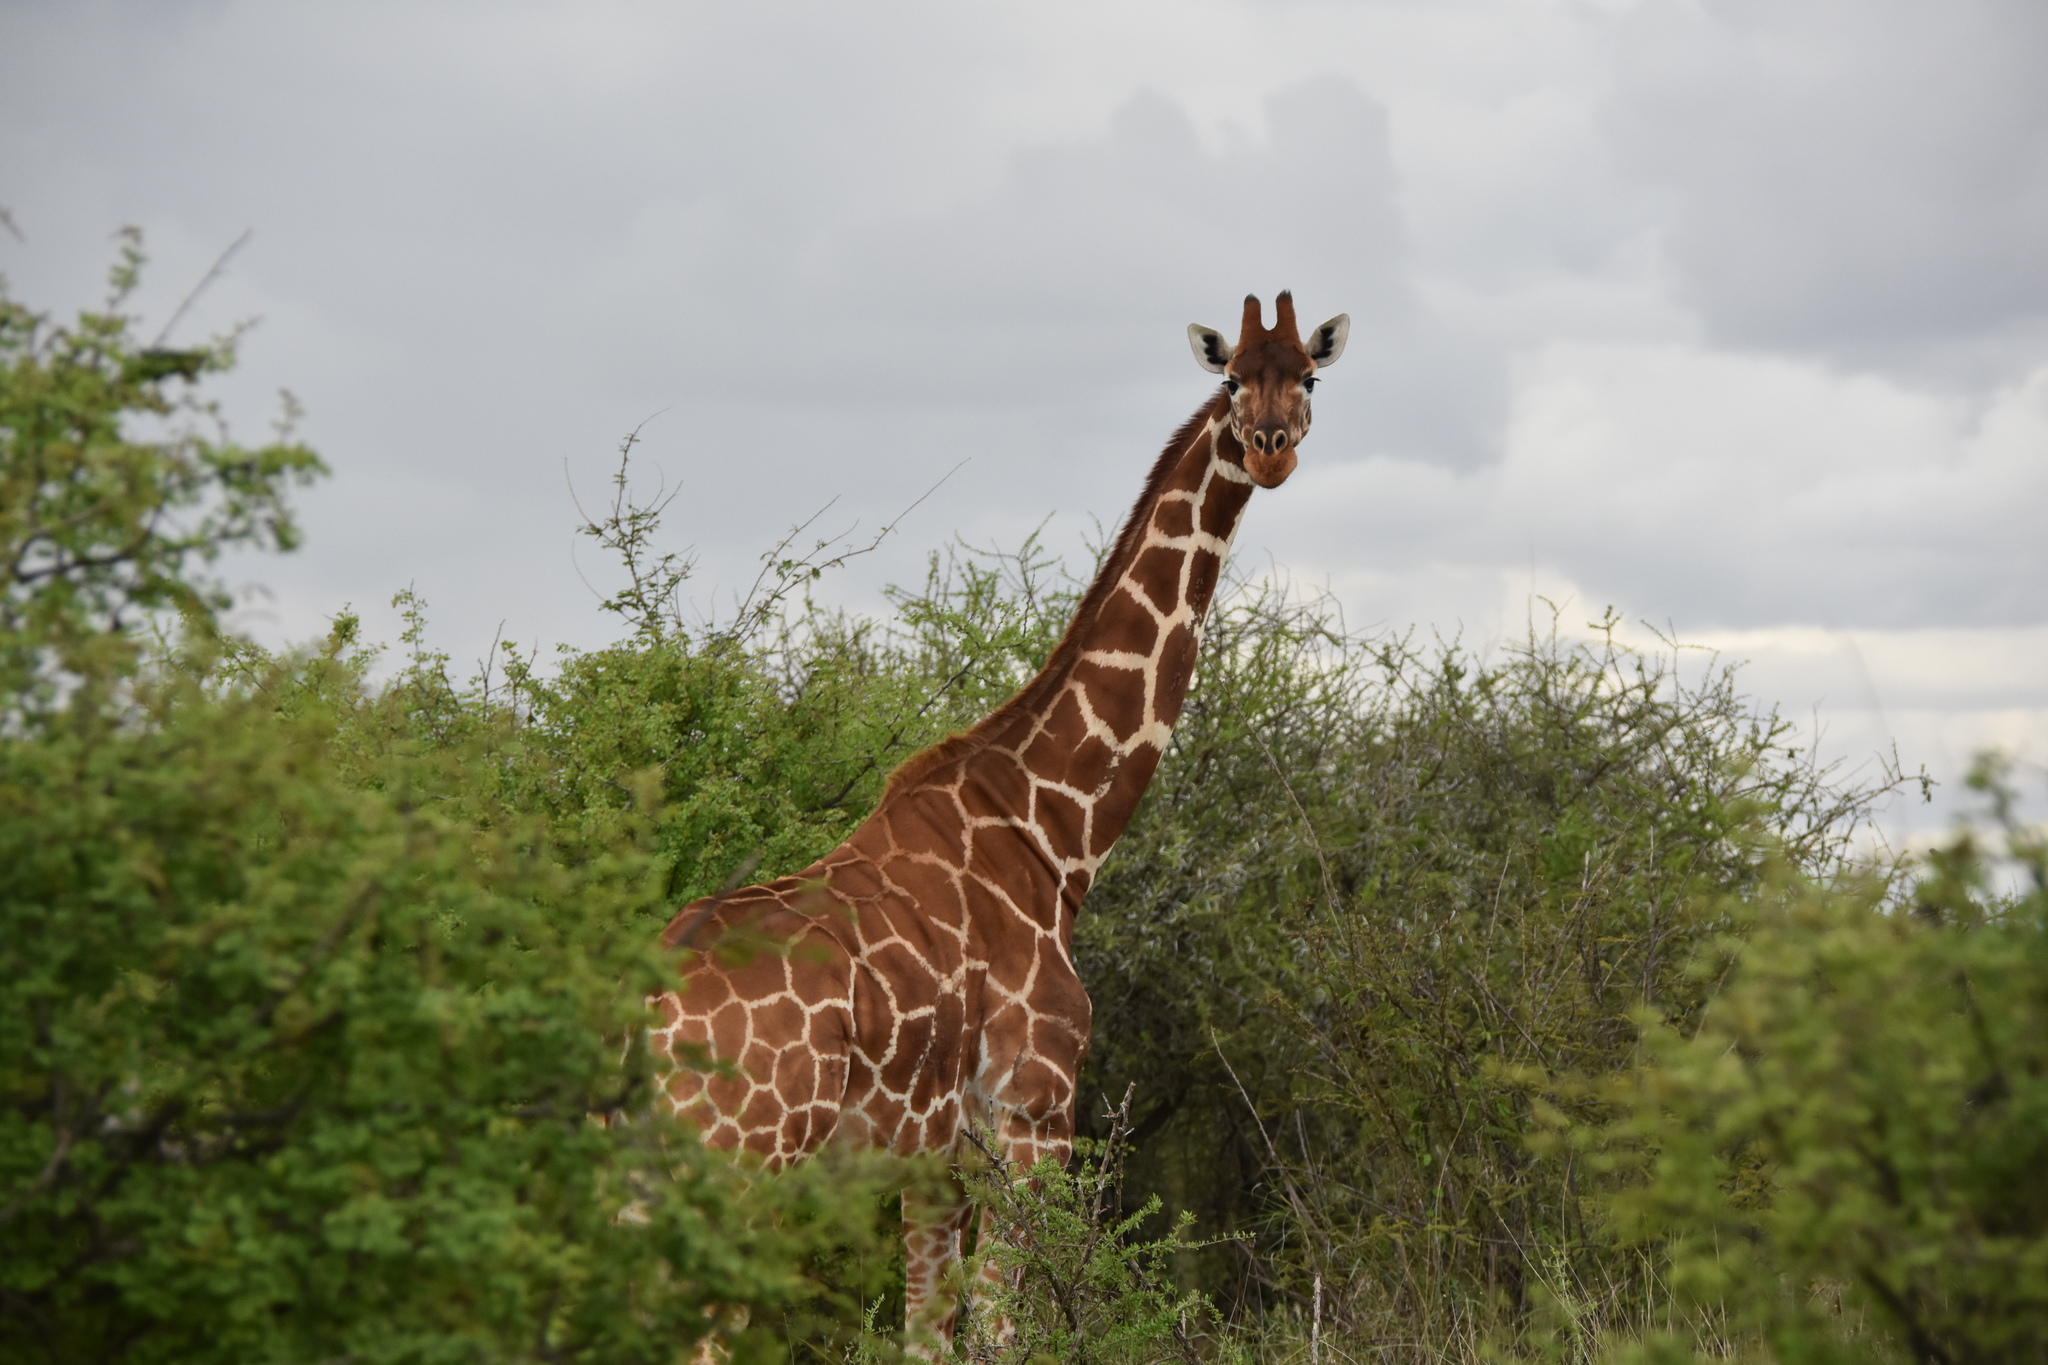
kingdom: Animalia
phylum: Chordata
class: Mammalia
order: Artiodactyla
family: Giraffidae
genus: Giraffa
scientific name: Giraffa reticulata
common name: Reticulated giraffe
